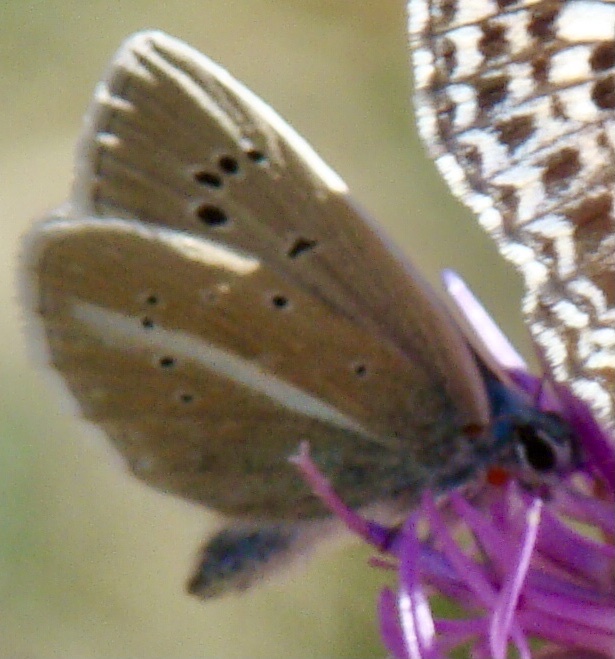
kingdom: Animalia
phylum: Arthropoda
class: Insecta
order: Lepidoptera
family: Lycaenidae
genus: Agrodiaetus
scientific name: Agrodiaetus damon
